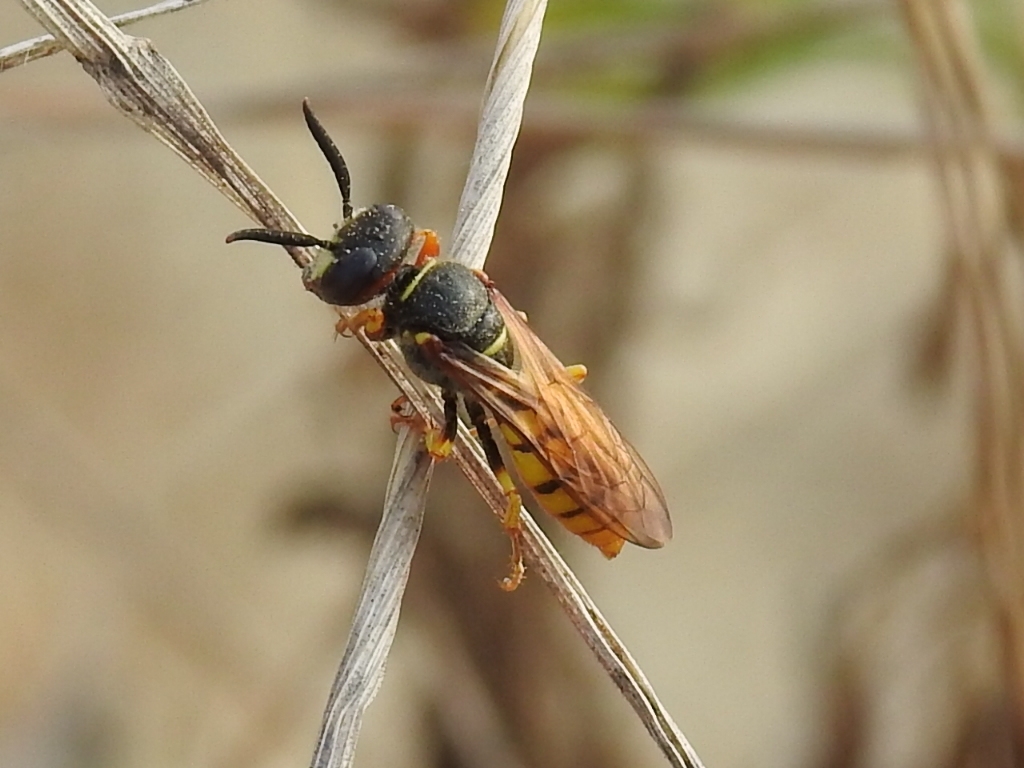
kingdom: Animalia
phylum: Arthropoda
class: Insecta
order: Hymenoptera
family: Crabronidae
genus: Philanthus
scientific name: Philanthus triangulum
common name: Bee wolf
